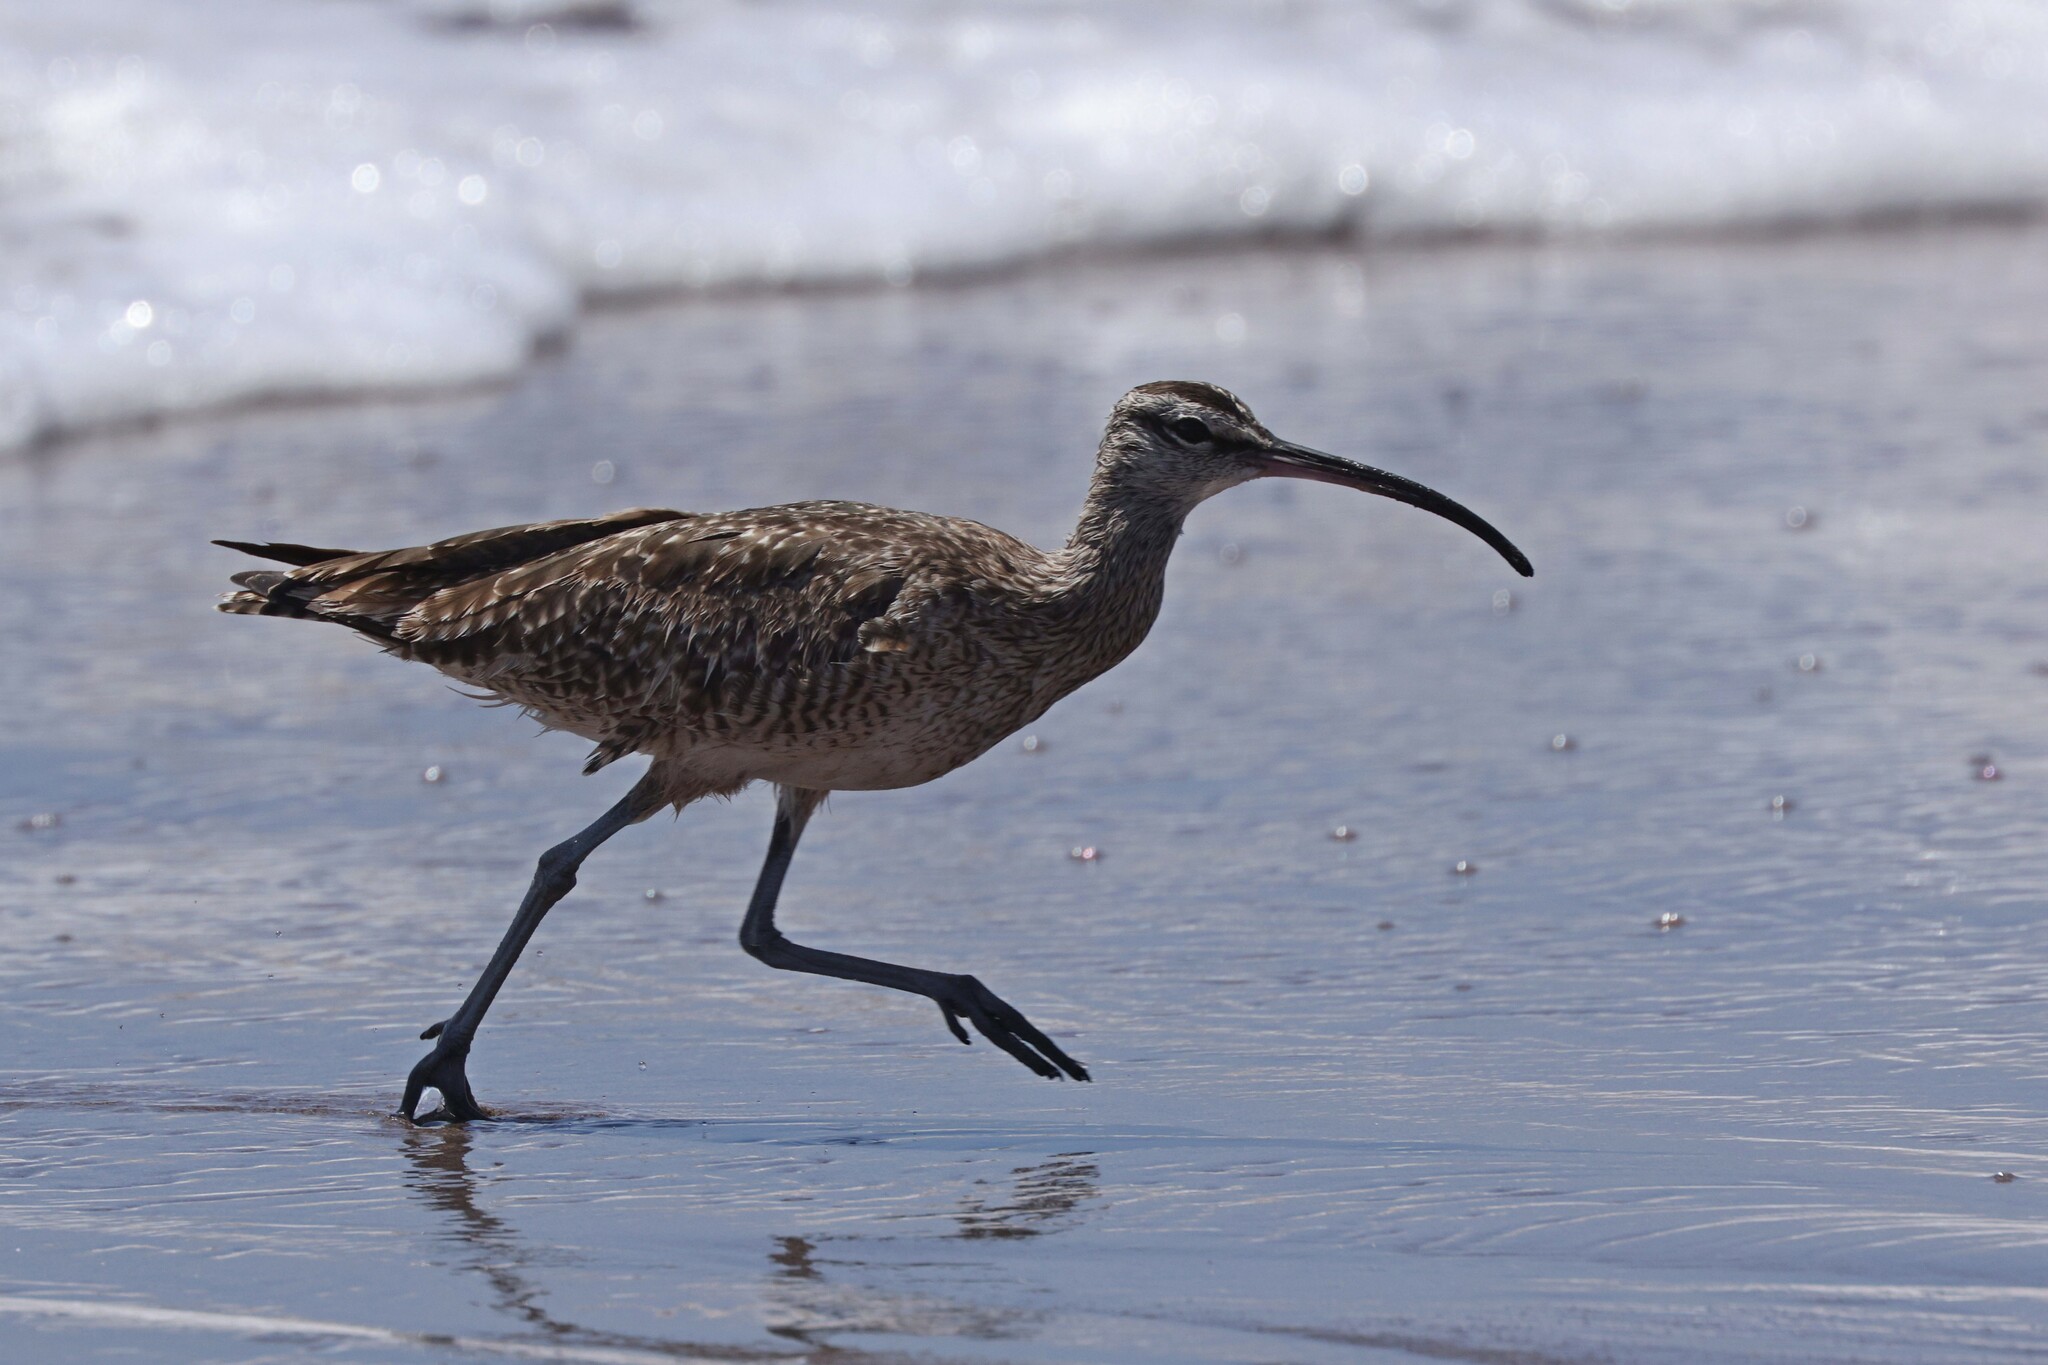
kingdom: Animalia
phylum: Chordata
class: Aves
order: Charadriiformes
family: Scolopacidae
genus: Numenius
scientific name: Numenius phaeopus
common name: Whimbrel
